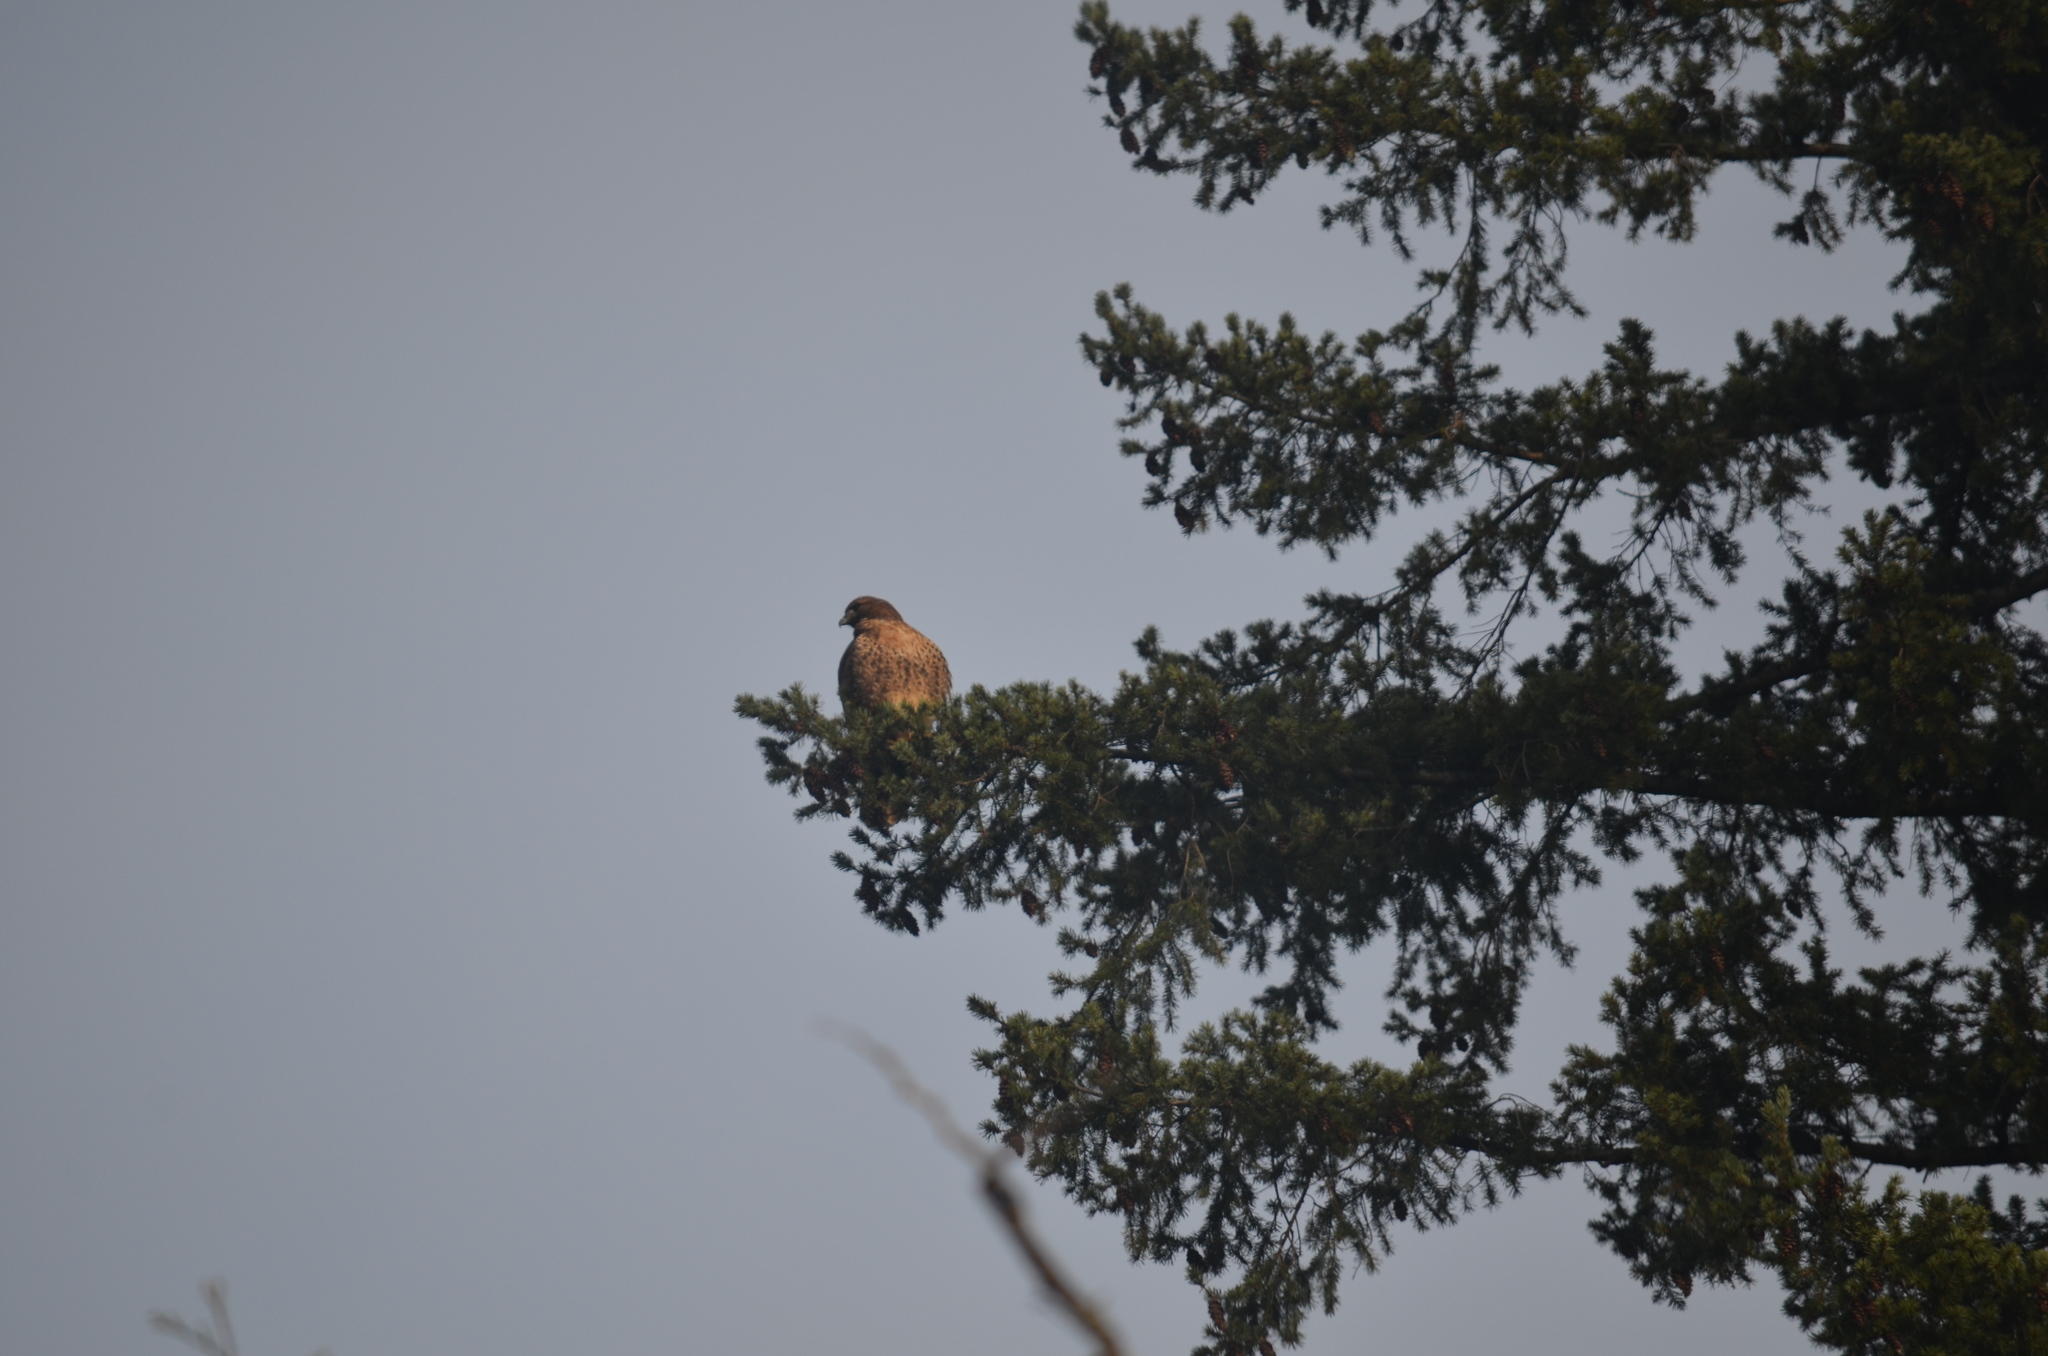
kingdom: Animalia
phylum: Chordata
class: Aves
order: Accipitriformes
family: Accipitridae
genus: Buteo
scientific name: Buteo jamaicensis
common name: Red-tailed hawk
